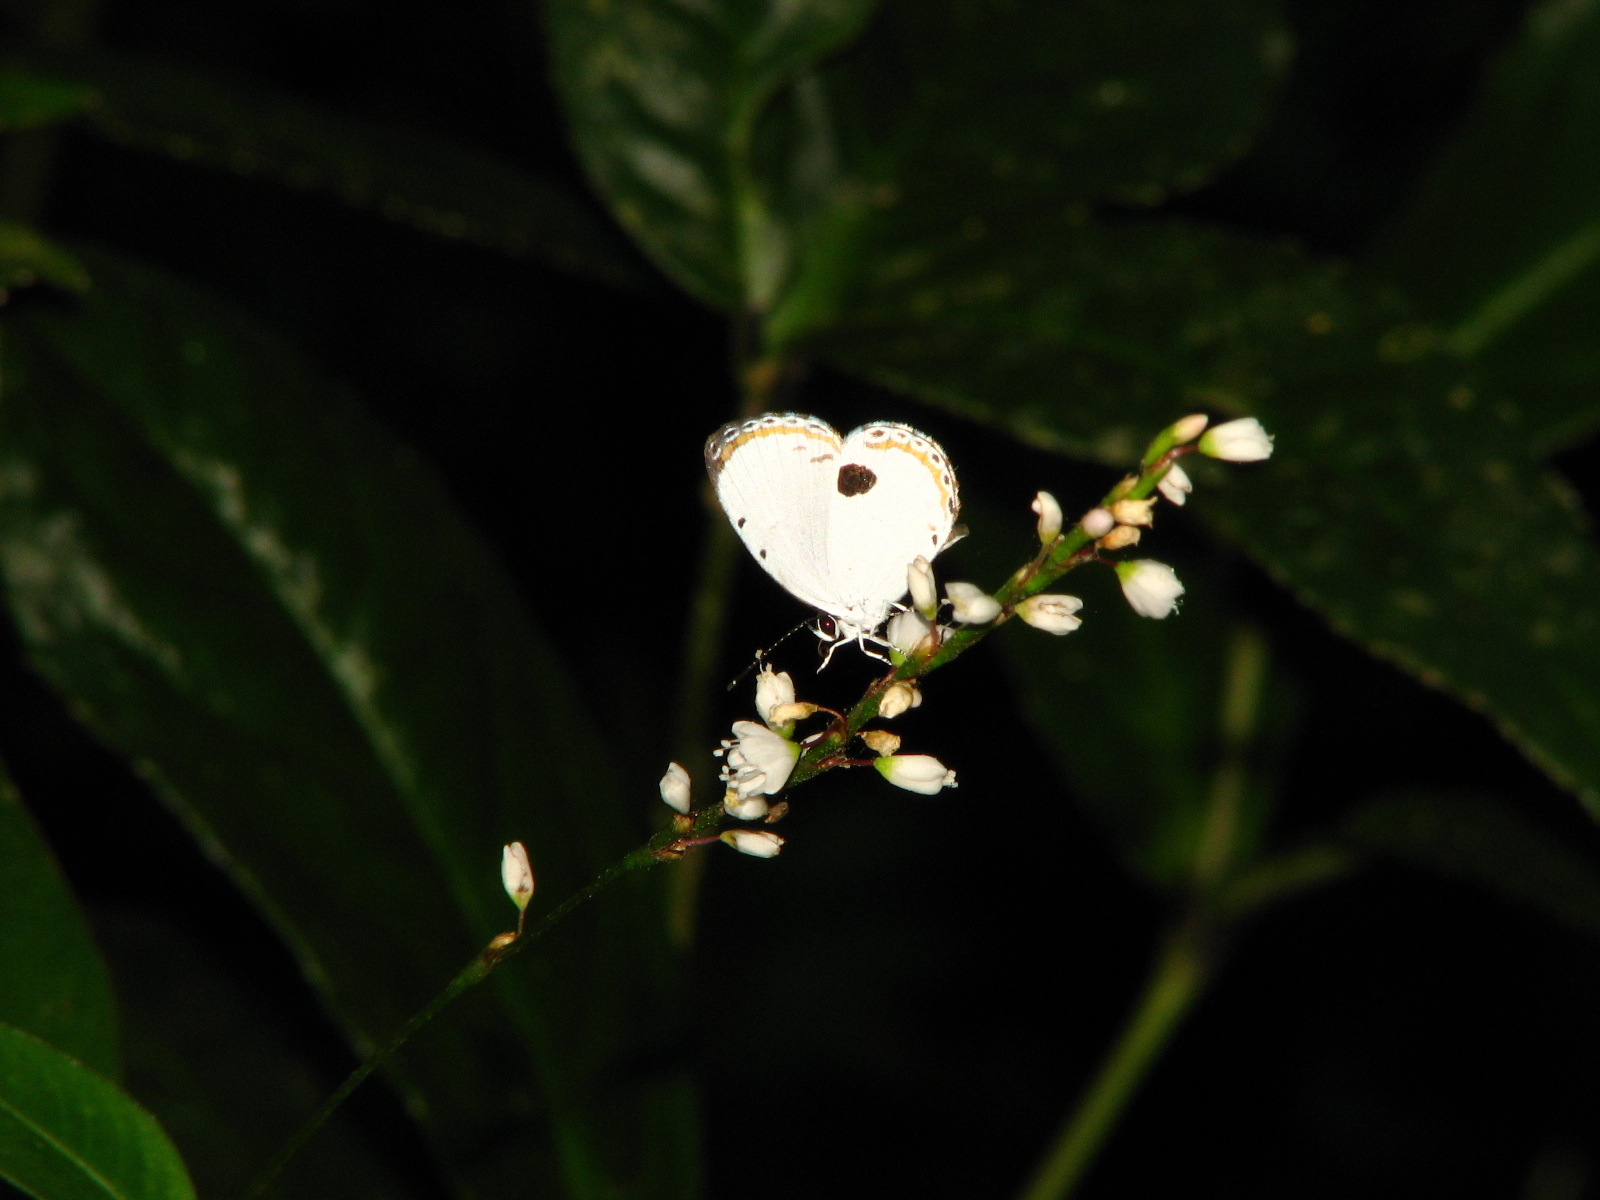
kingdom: Animalia
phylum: Arthropoda
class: Insecta
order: Lepidoptera
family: Lycaenidae
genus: Pithecops
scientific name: Pithecops corvus
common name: Forest quaker
